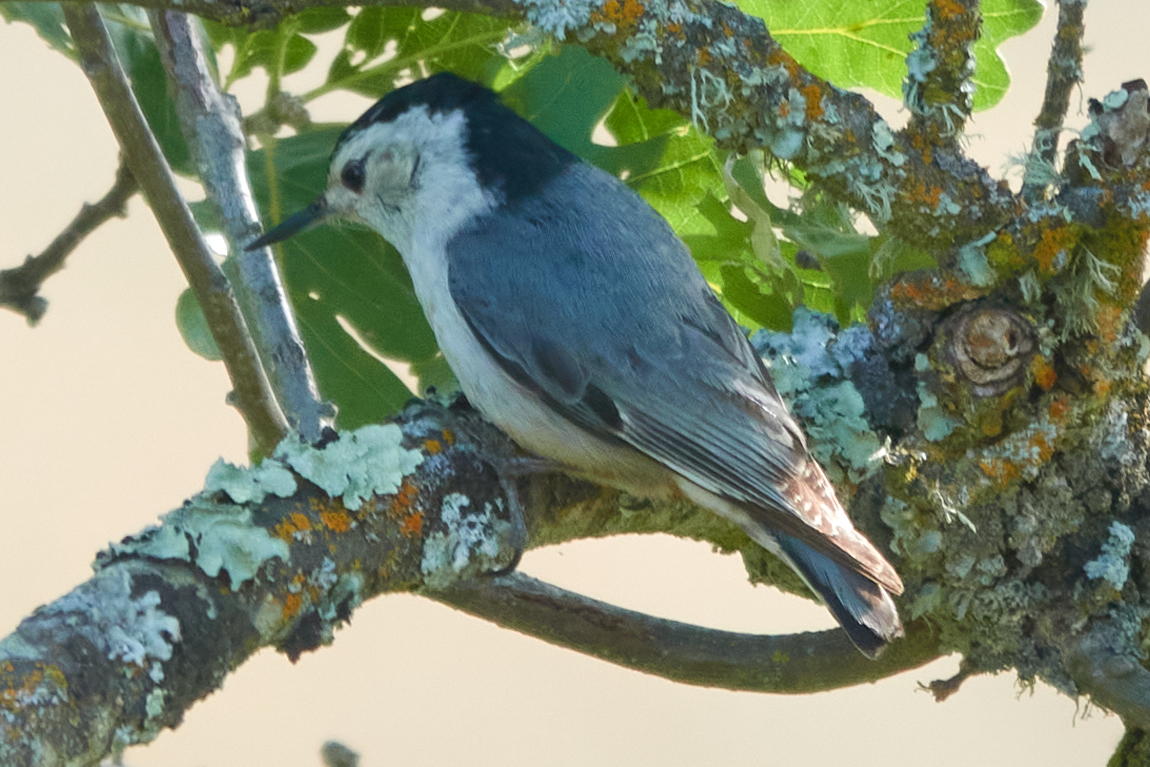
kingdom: Animalia
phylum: Chordata
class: Aves
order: Passeriformes
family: Sittidae
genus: Sitta
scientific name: Sitta carolinensis
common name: White-breasted nuthatch
